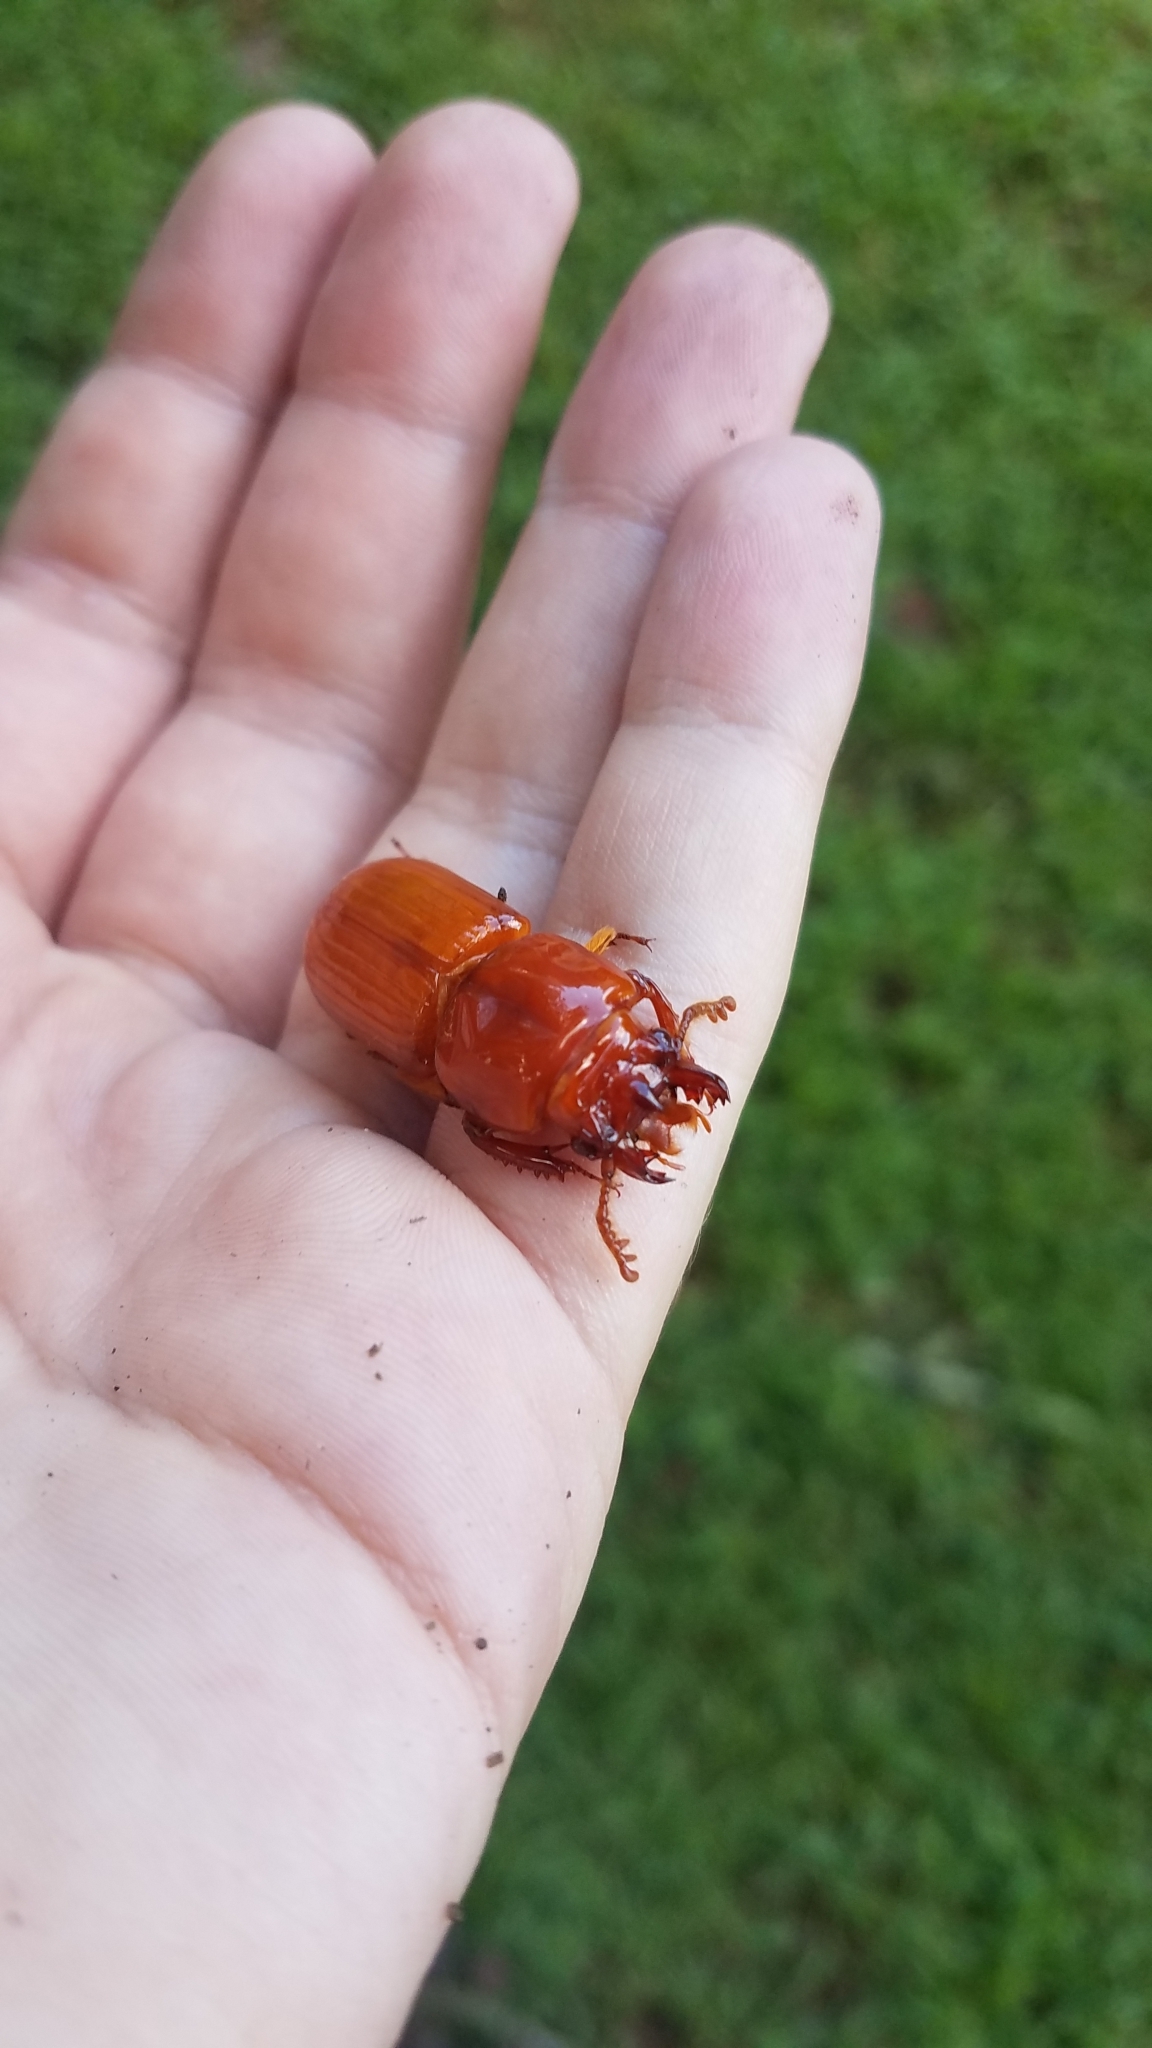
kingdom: Animalia
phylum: Arthropoda
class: Insecta
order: Coleoptera
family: Passalidae
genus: Odontotaenius
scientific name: Odontotaenius disjunctus
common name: Patent leather beetle
